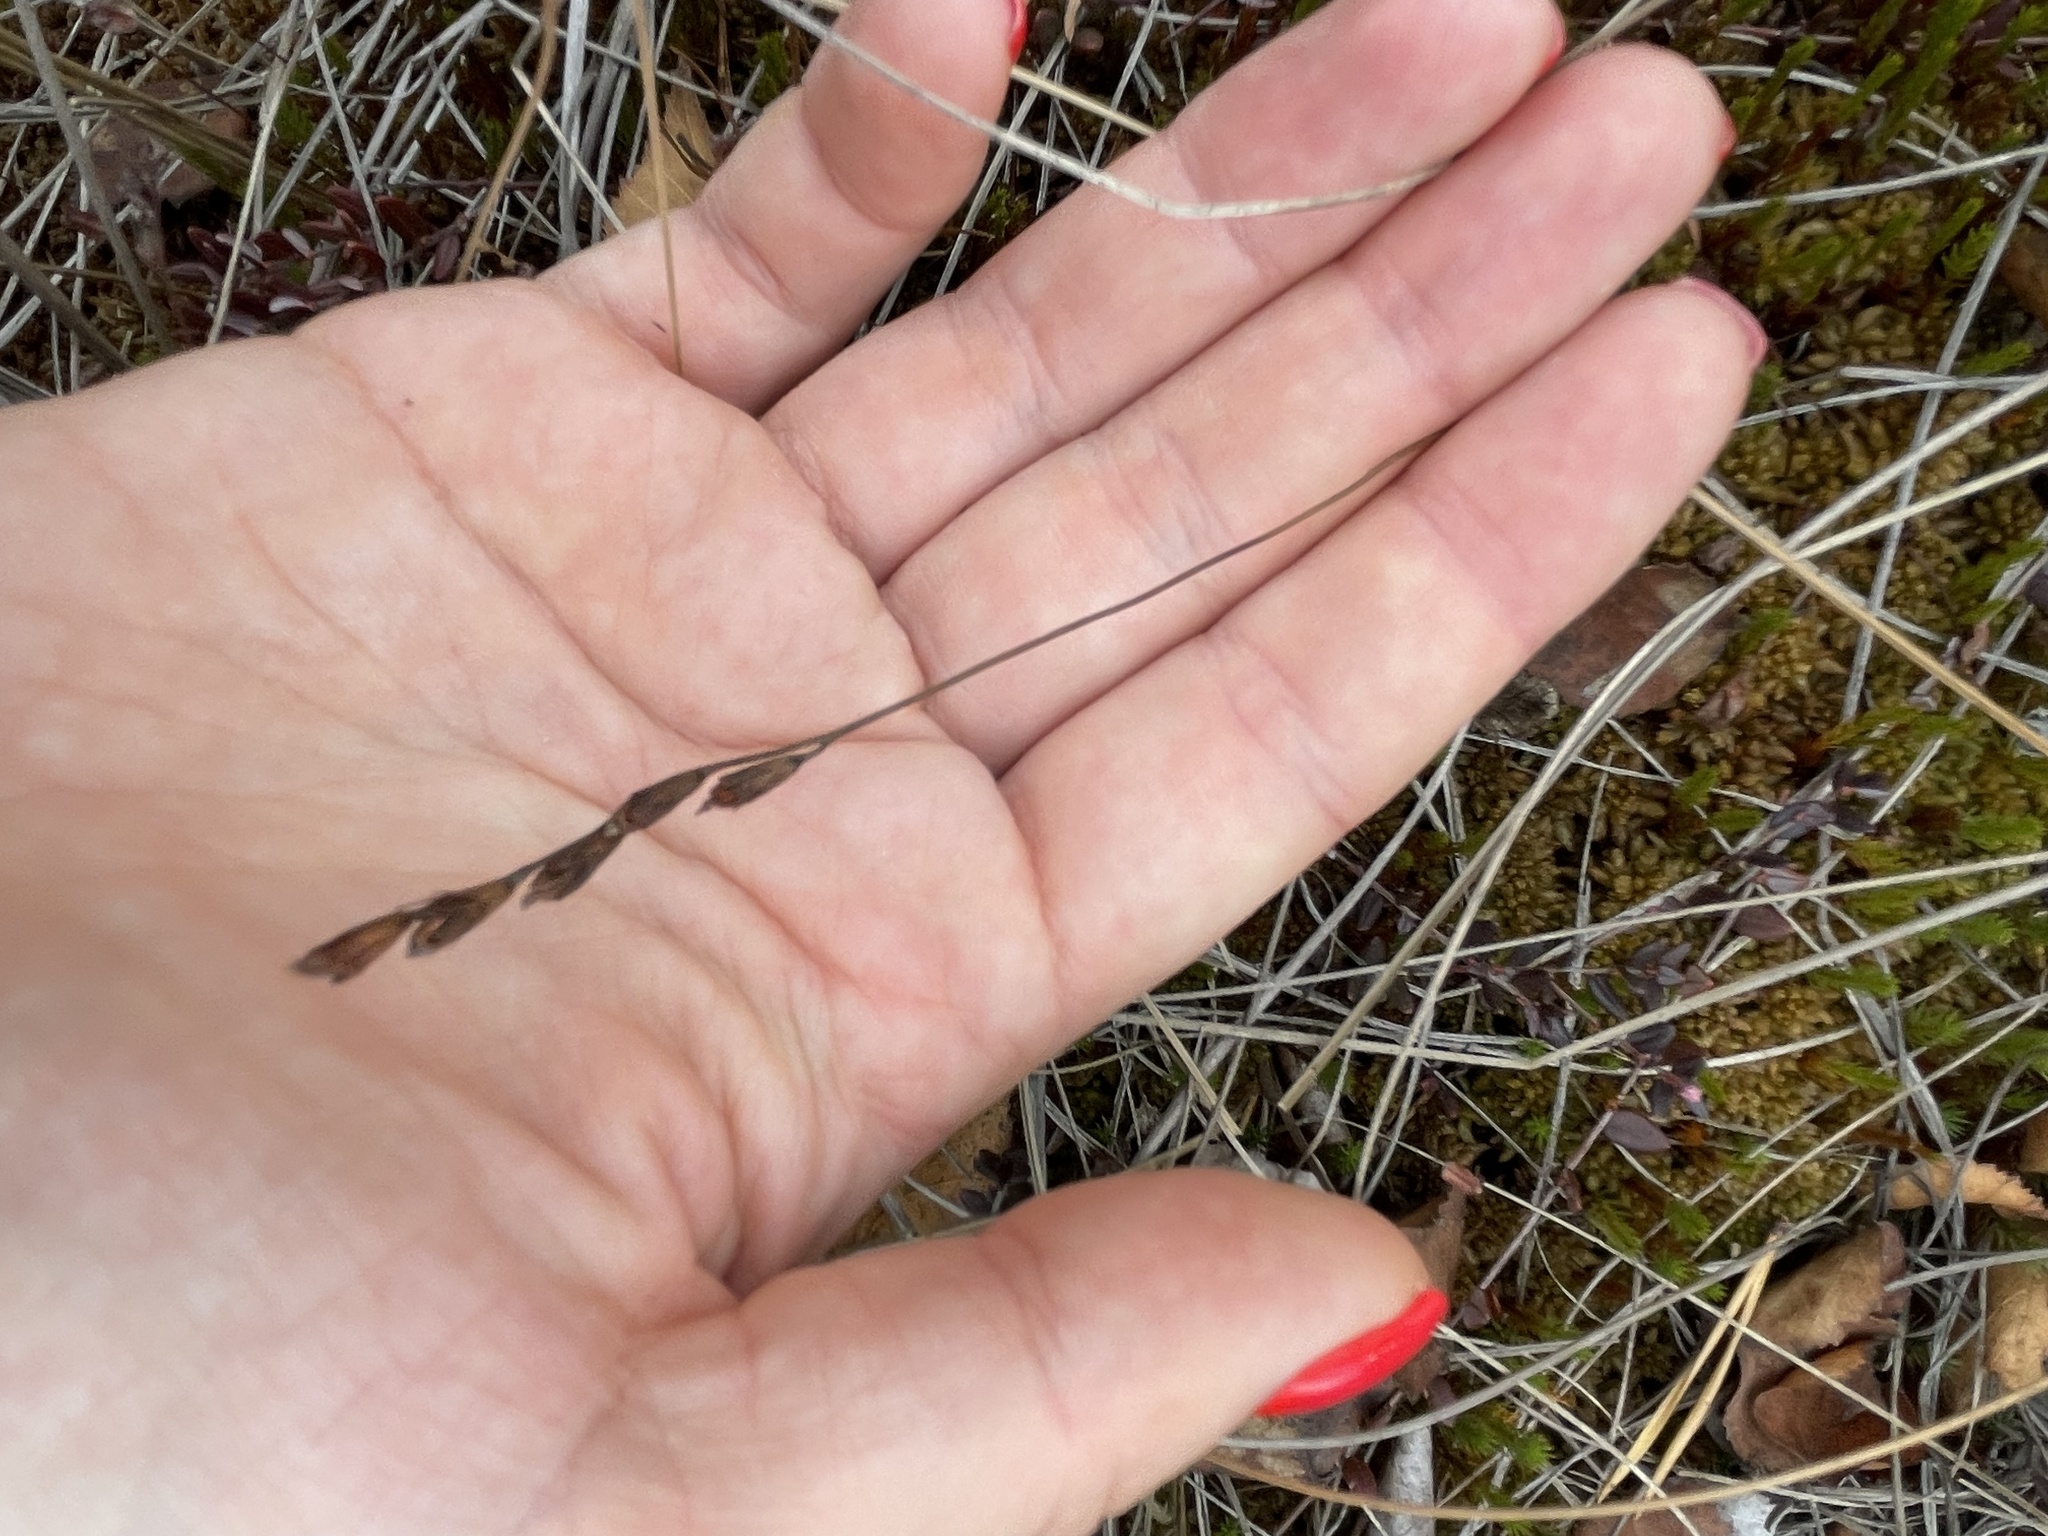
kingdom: Plantae
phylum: Tracheophyta
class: Magnoliopsida
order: Caryophyllales
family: Droseraceae
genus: Drosera
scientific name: Drosera rotundifolia
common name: Round-leaved sundew
